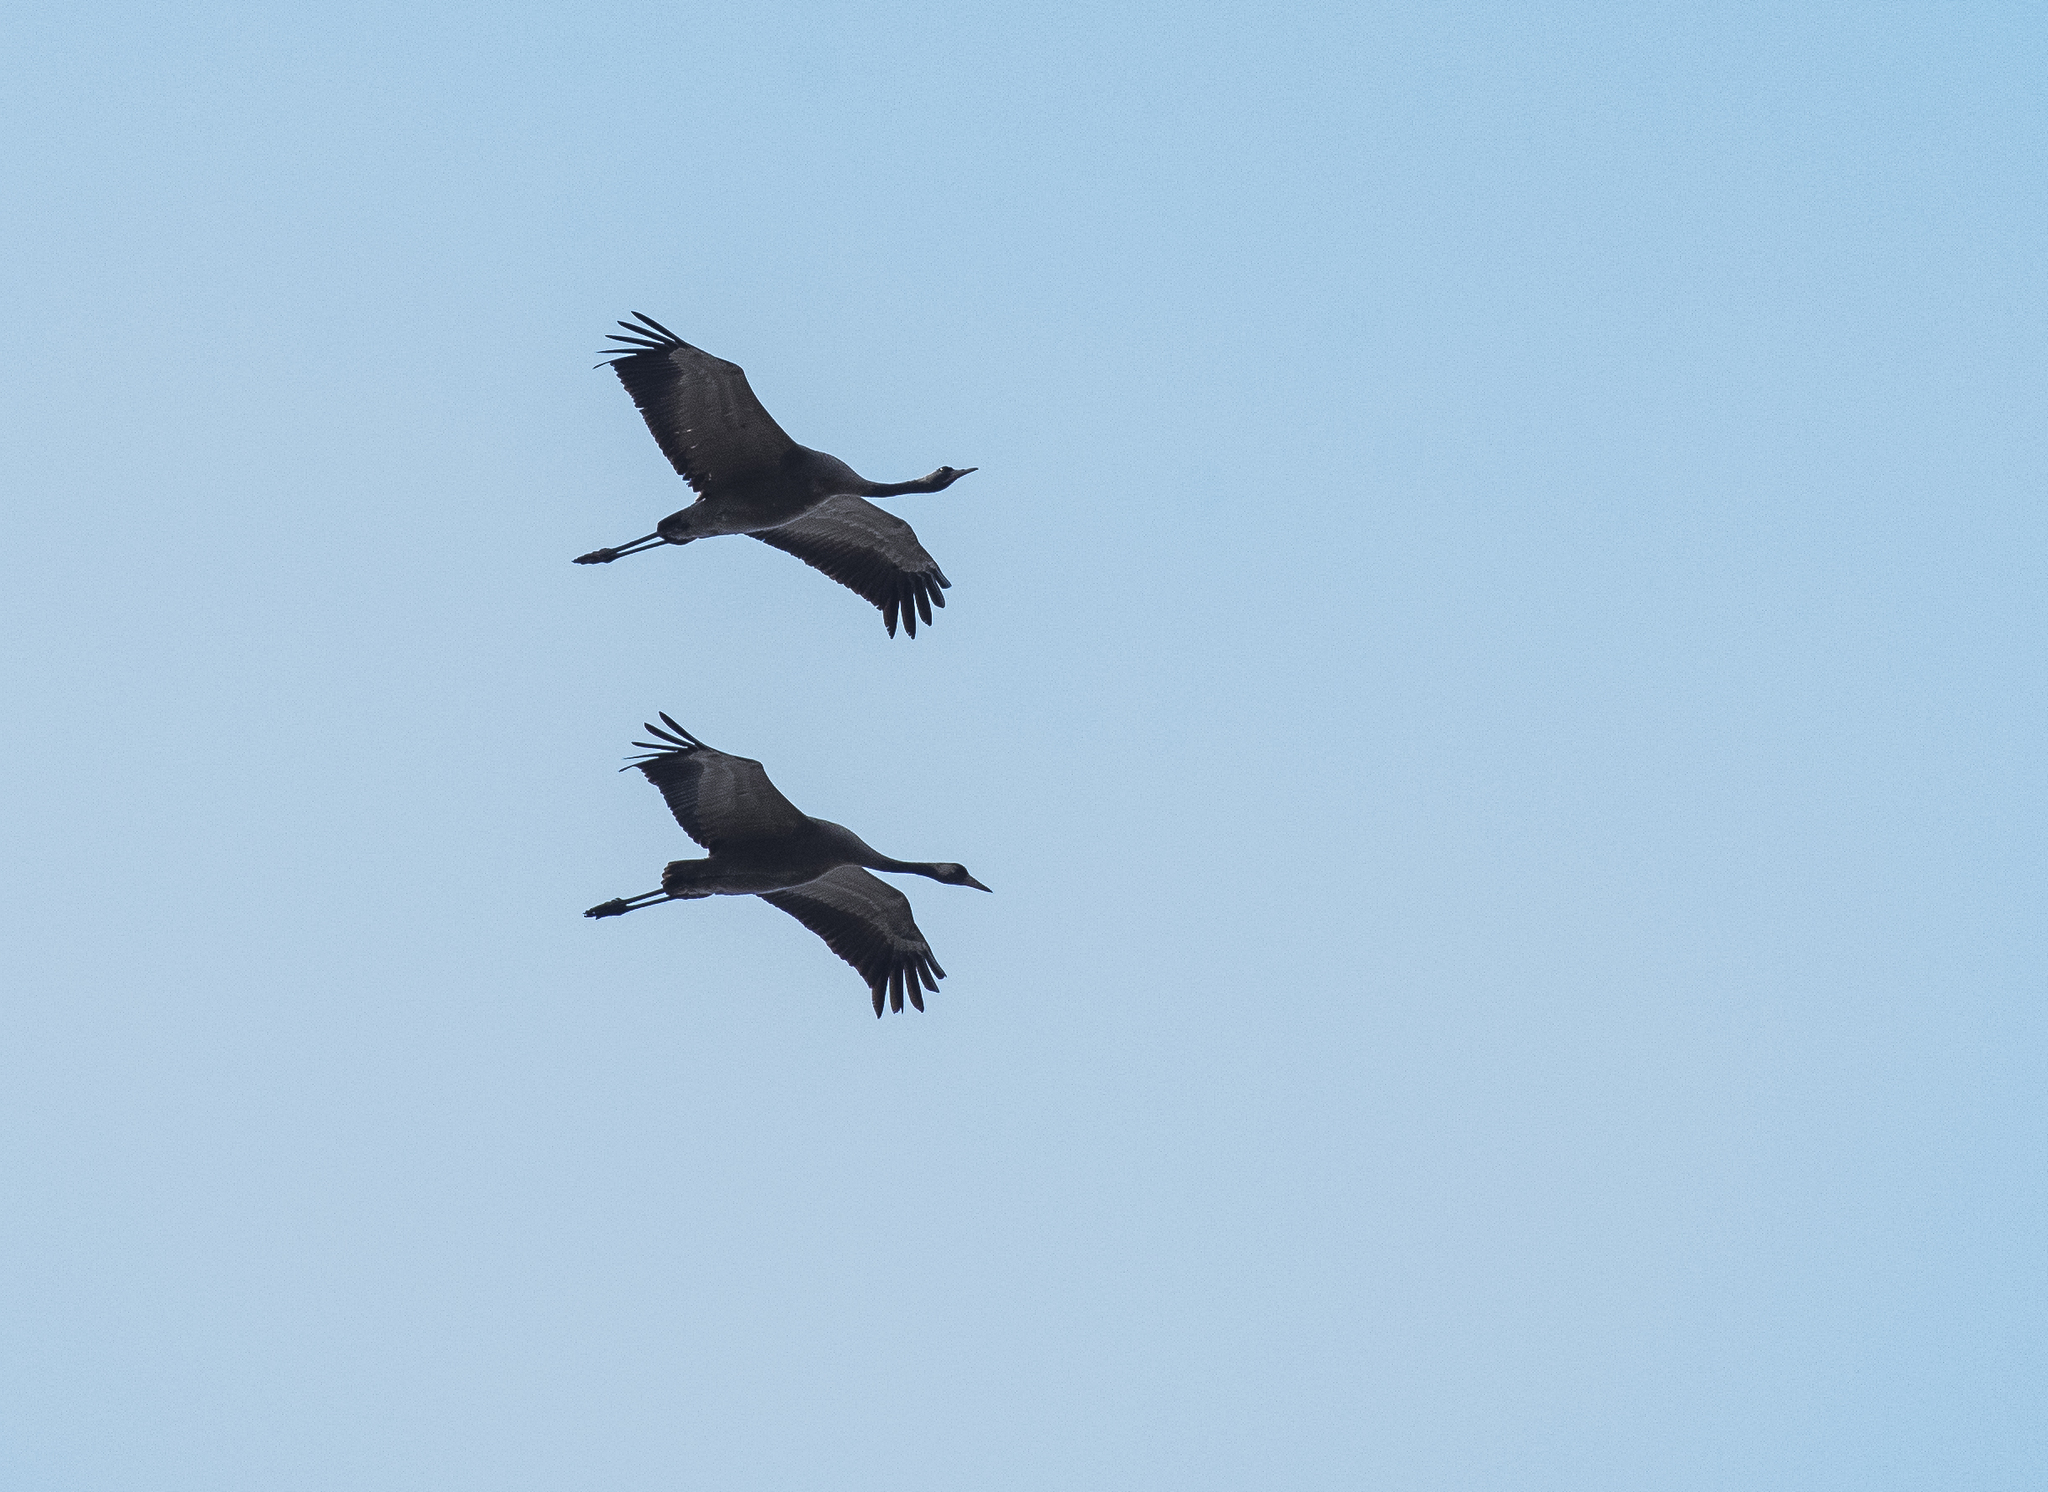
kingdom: Animalia
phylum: Chordata
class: Aves
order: Gruiformes
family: Gruidae
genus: Grus
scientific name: Grus grus
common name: Common crane
